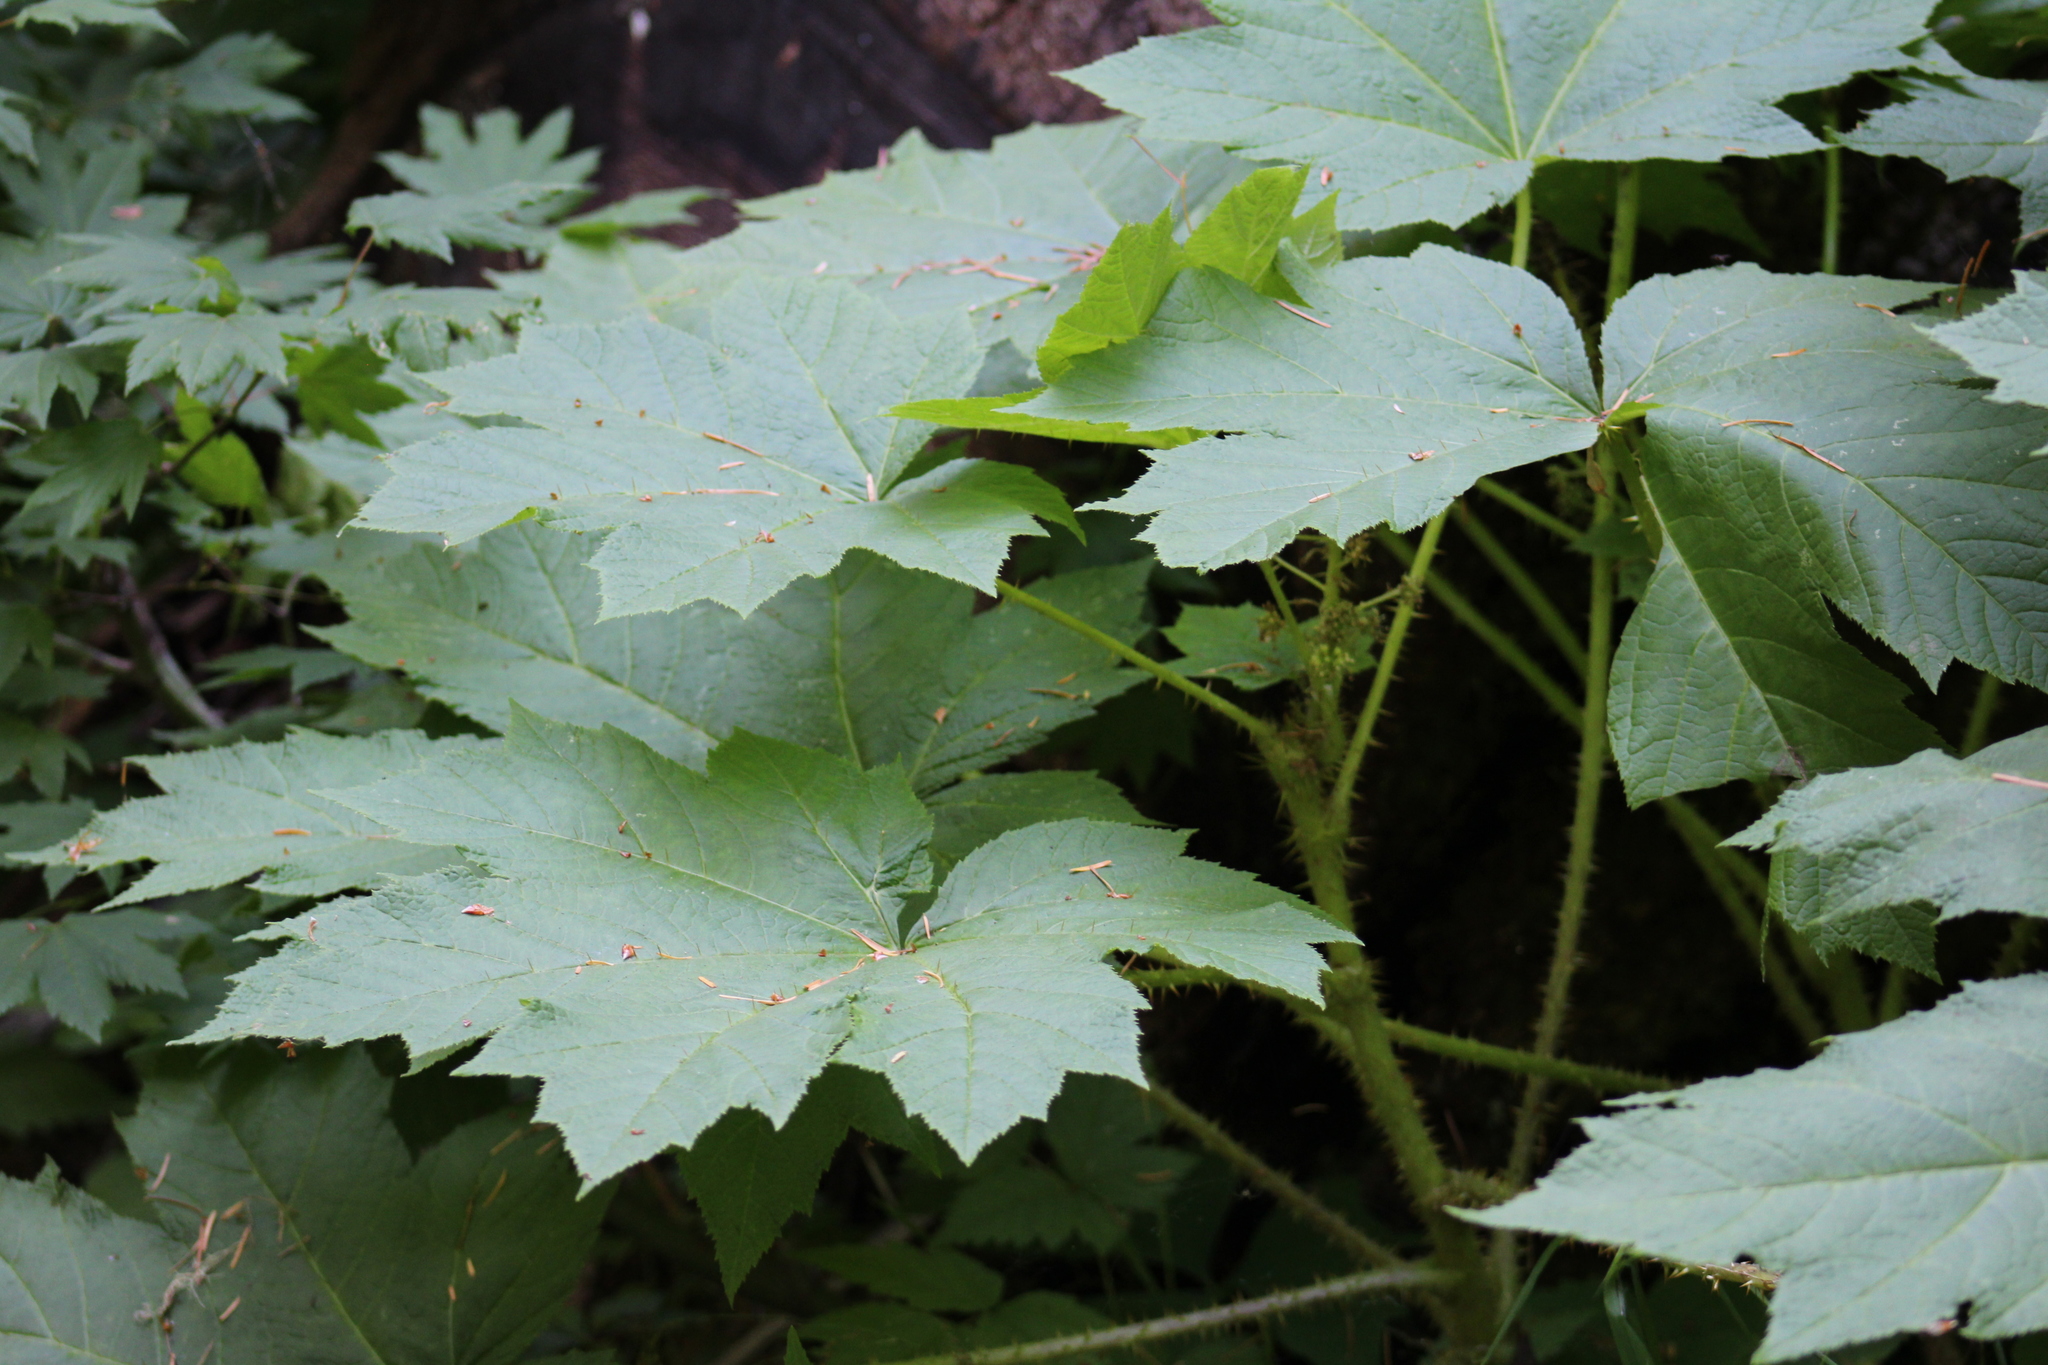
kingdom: Plantae
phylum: Tracheophyta
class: Magnoliopsida
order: Apiales
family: Araliaceae
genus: Oplopanax
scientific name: Oplopanax horridus
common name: Devil's walking-stick
